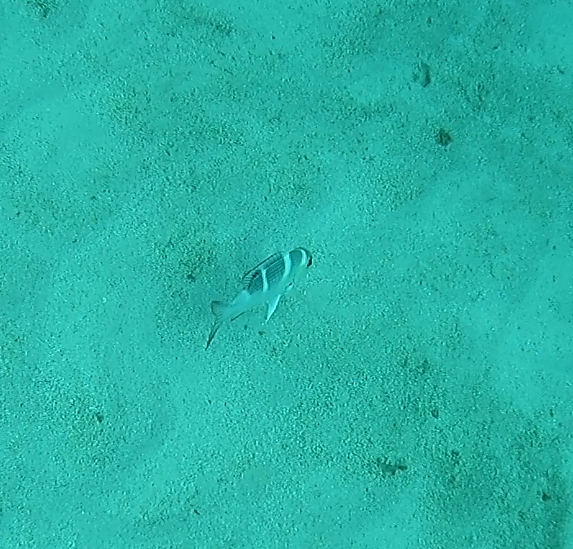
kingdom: Animalia
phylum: Chordata
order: Perciformes
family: Lethrinidae
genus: Monotaxis
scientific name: Monotaxis grandoculis
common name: Bigeye emperor
